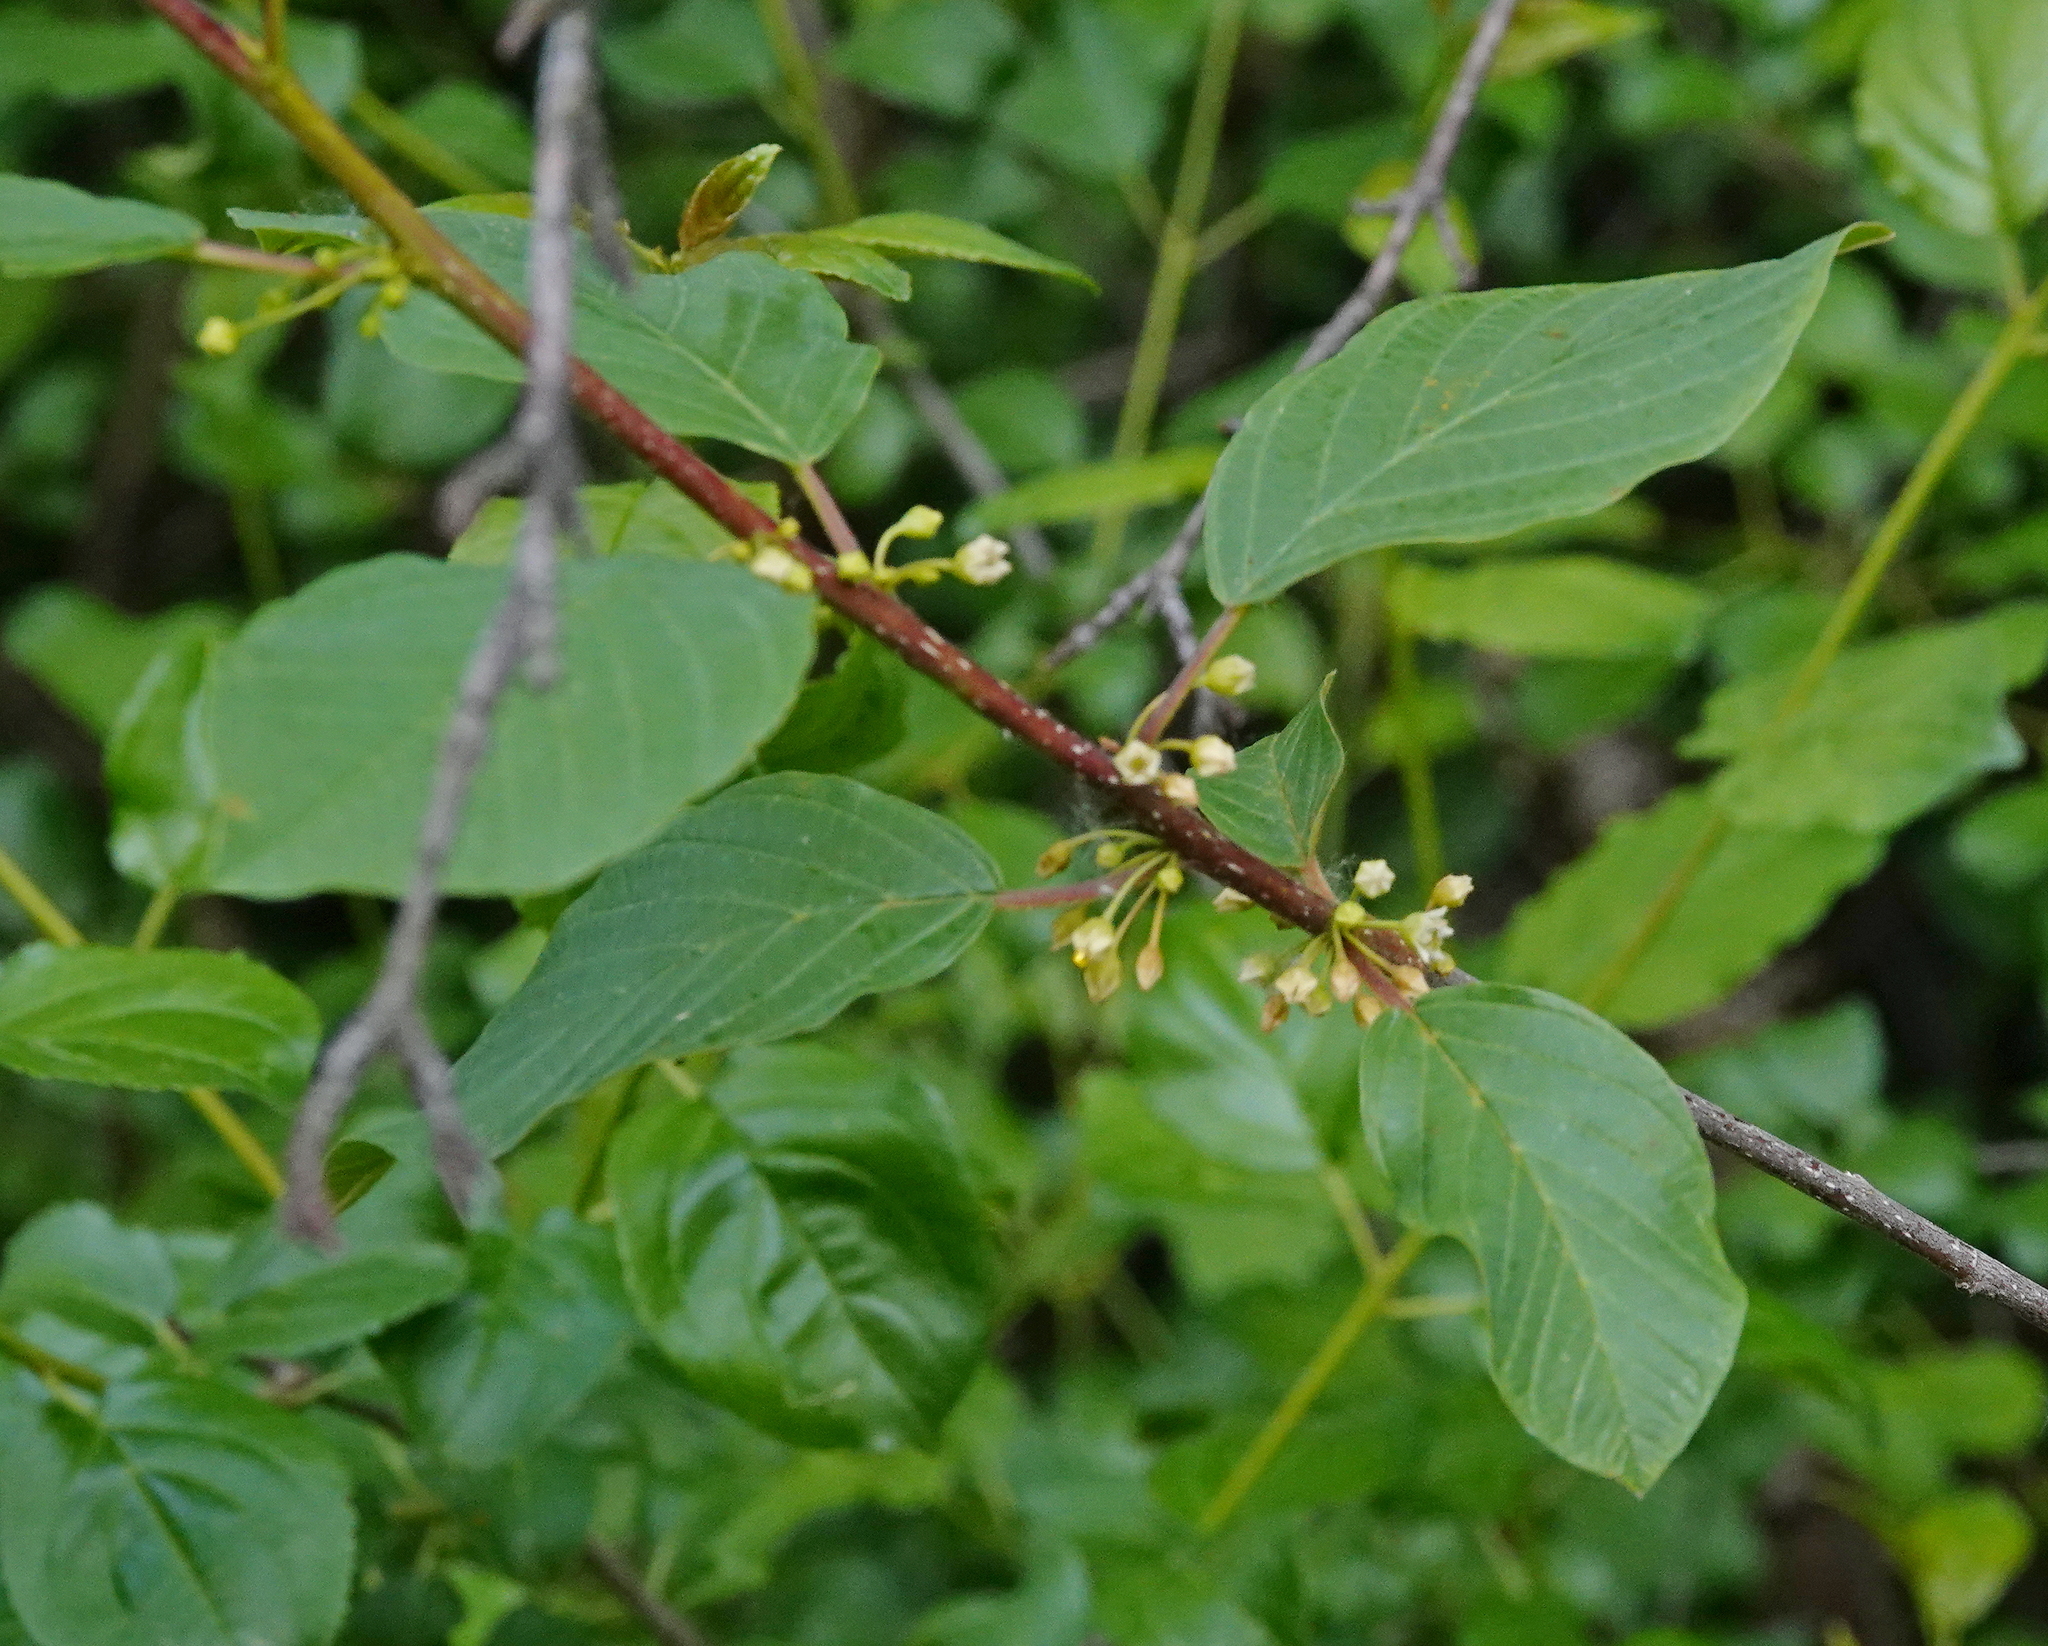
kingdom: Plantae
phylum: Tracheophyta
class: Magnoliopsida
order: Rosales
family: Rhamnaceae
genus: Frangula
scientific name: Frangula alnus
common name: Alder buckthorn
